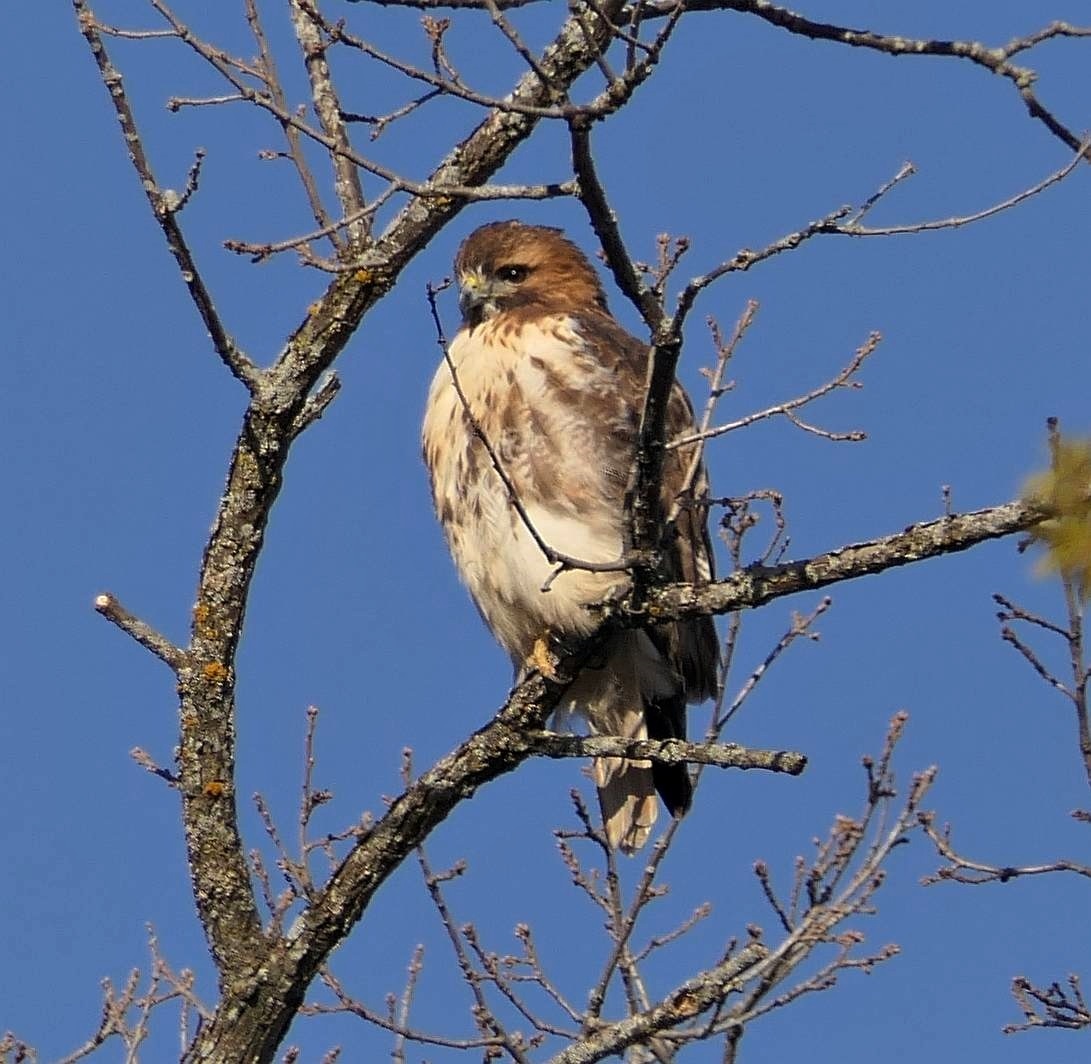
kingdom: Animalia
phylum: Chordata
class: Aves
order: Accipitriformes
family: Accipitridae
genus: Buteo
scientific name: Buteo jamaicensis
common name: Red-tailed hawk
